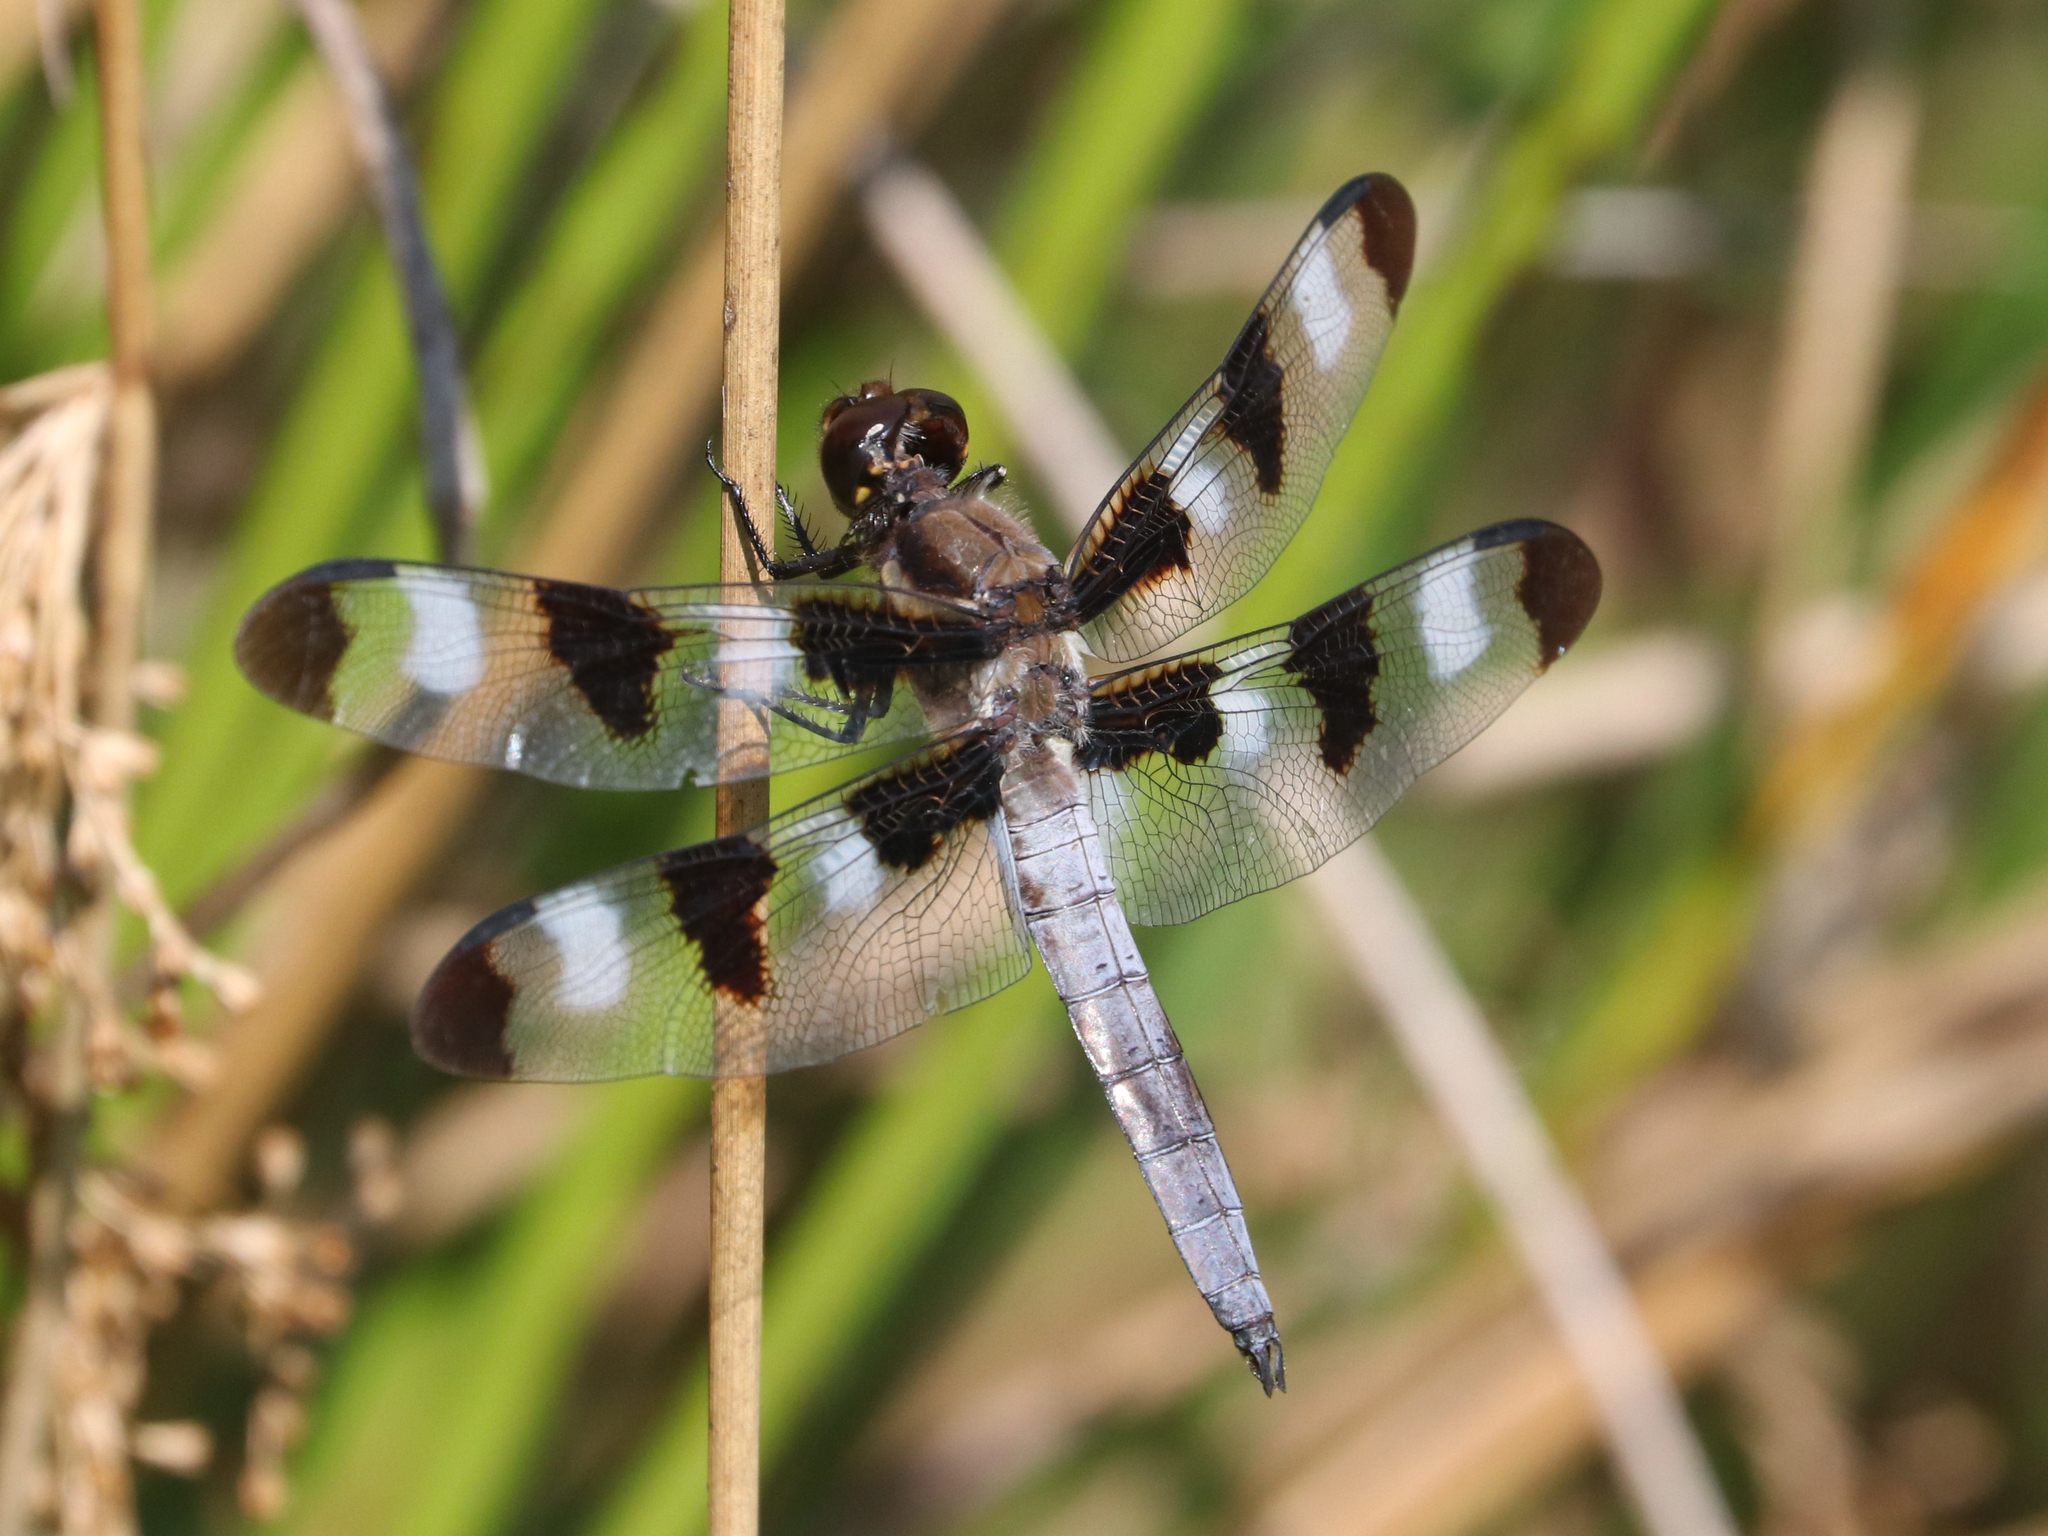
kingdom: Animalia
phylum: Arthropoda
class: Insecta
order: Odonata
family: Libellulidae
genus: Libellula
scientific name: Libellula pulchella
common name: Twelve-spotted skimmer
